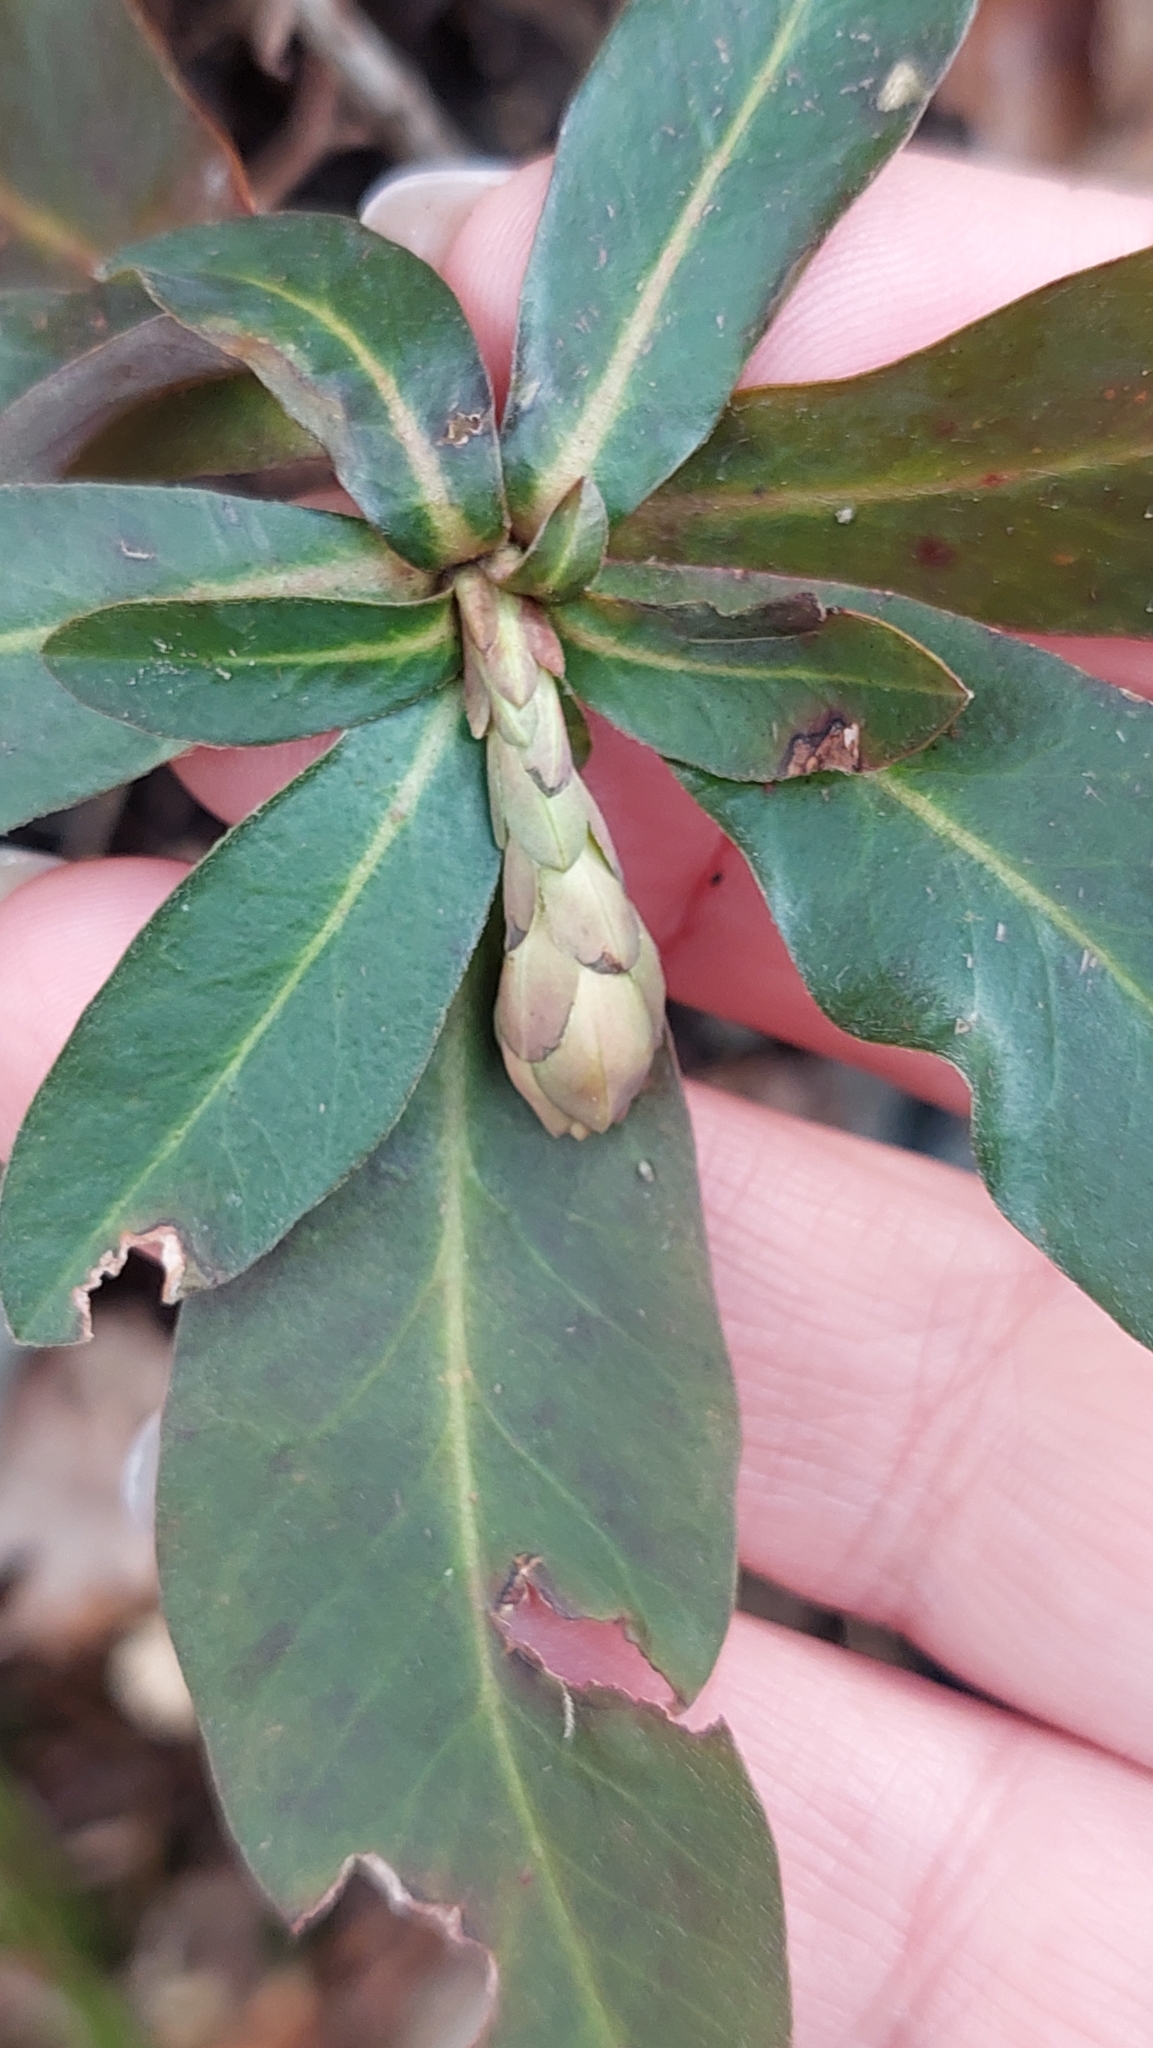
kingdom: Plantae
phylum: Tracheophyta
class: Magnoliopsida
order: Malpighiales
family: Euphorbiaceae
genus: Euphorbia
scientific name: Euphorbia amygdaloides
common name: Wood spurge
